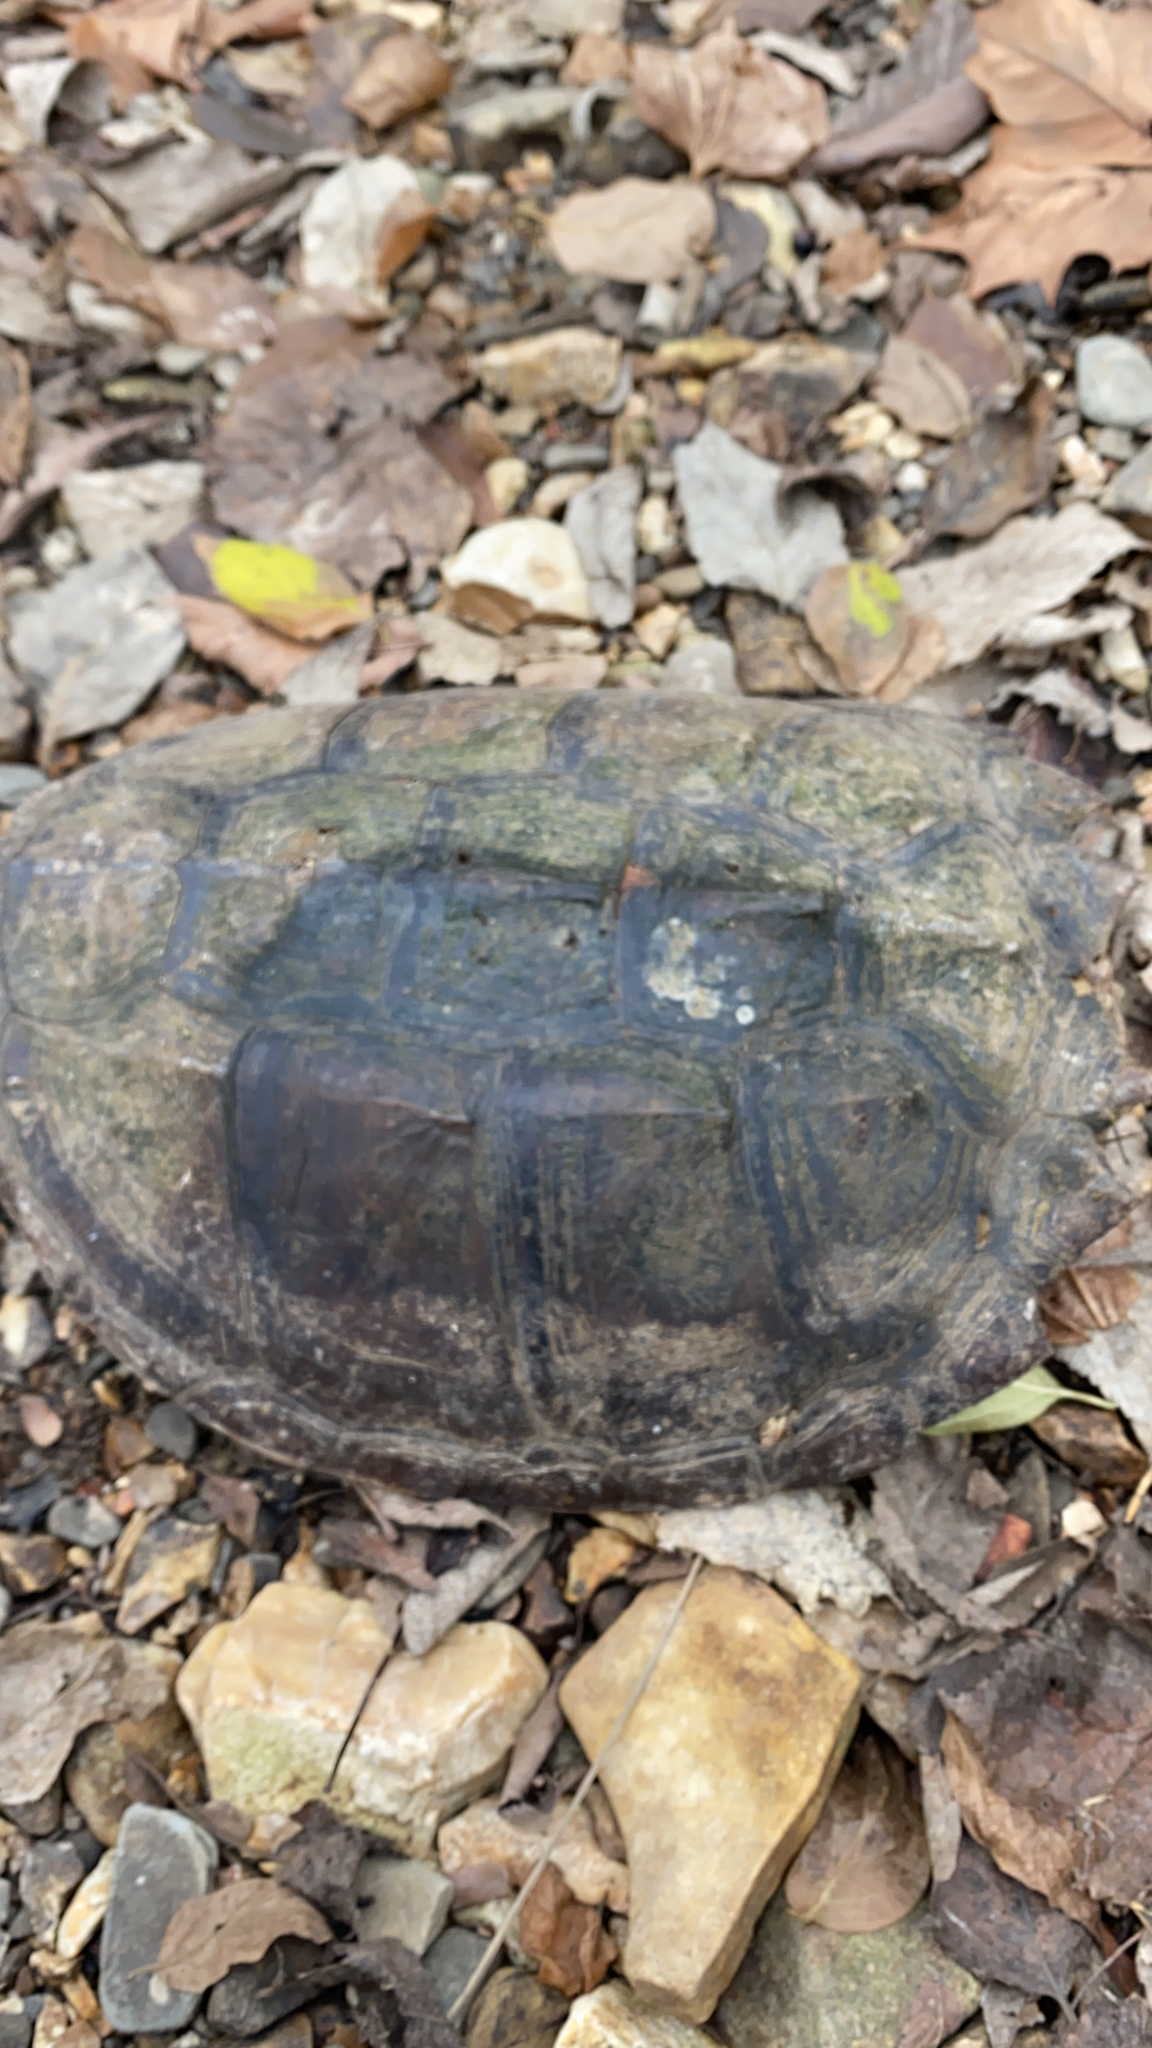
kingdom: Animalia
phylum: Chordata
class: Testudines
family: Chelydridae
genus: Chelydra
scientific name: Chelydra serpentina
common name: Common snapping turtle
